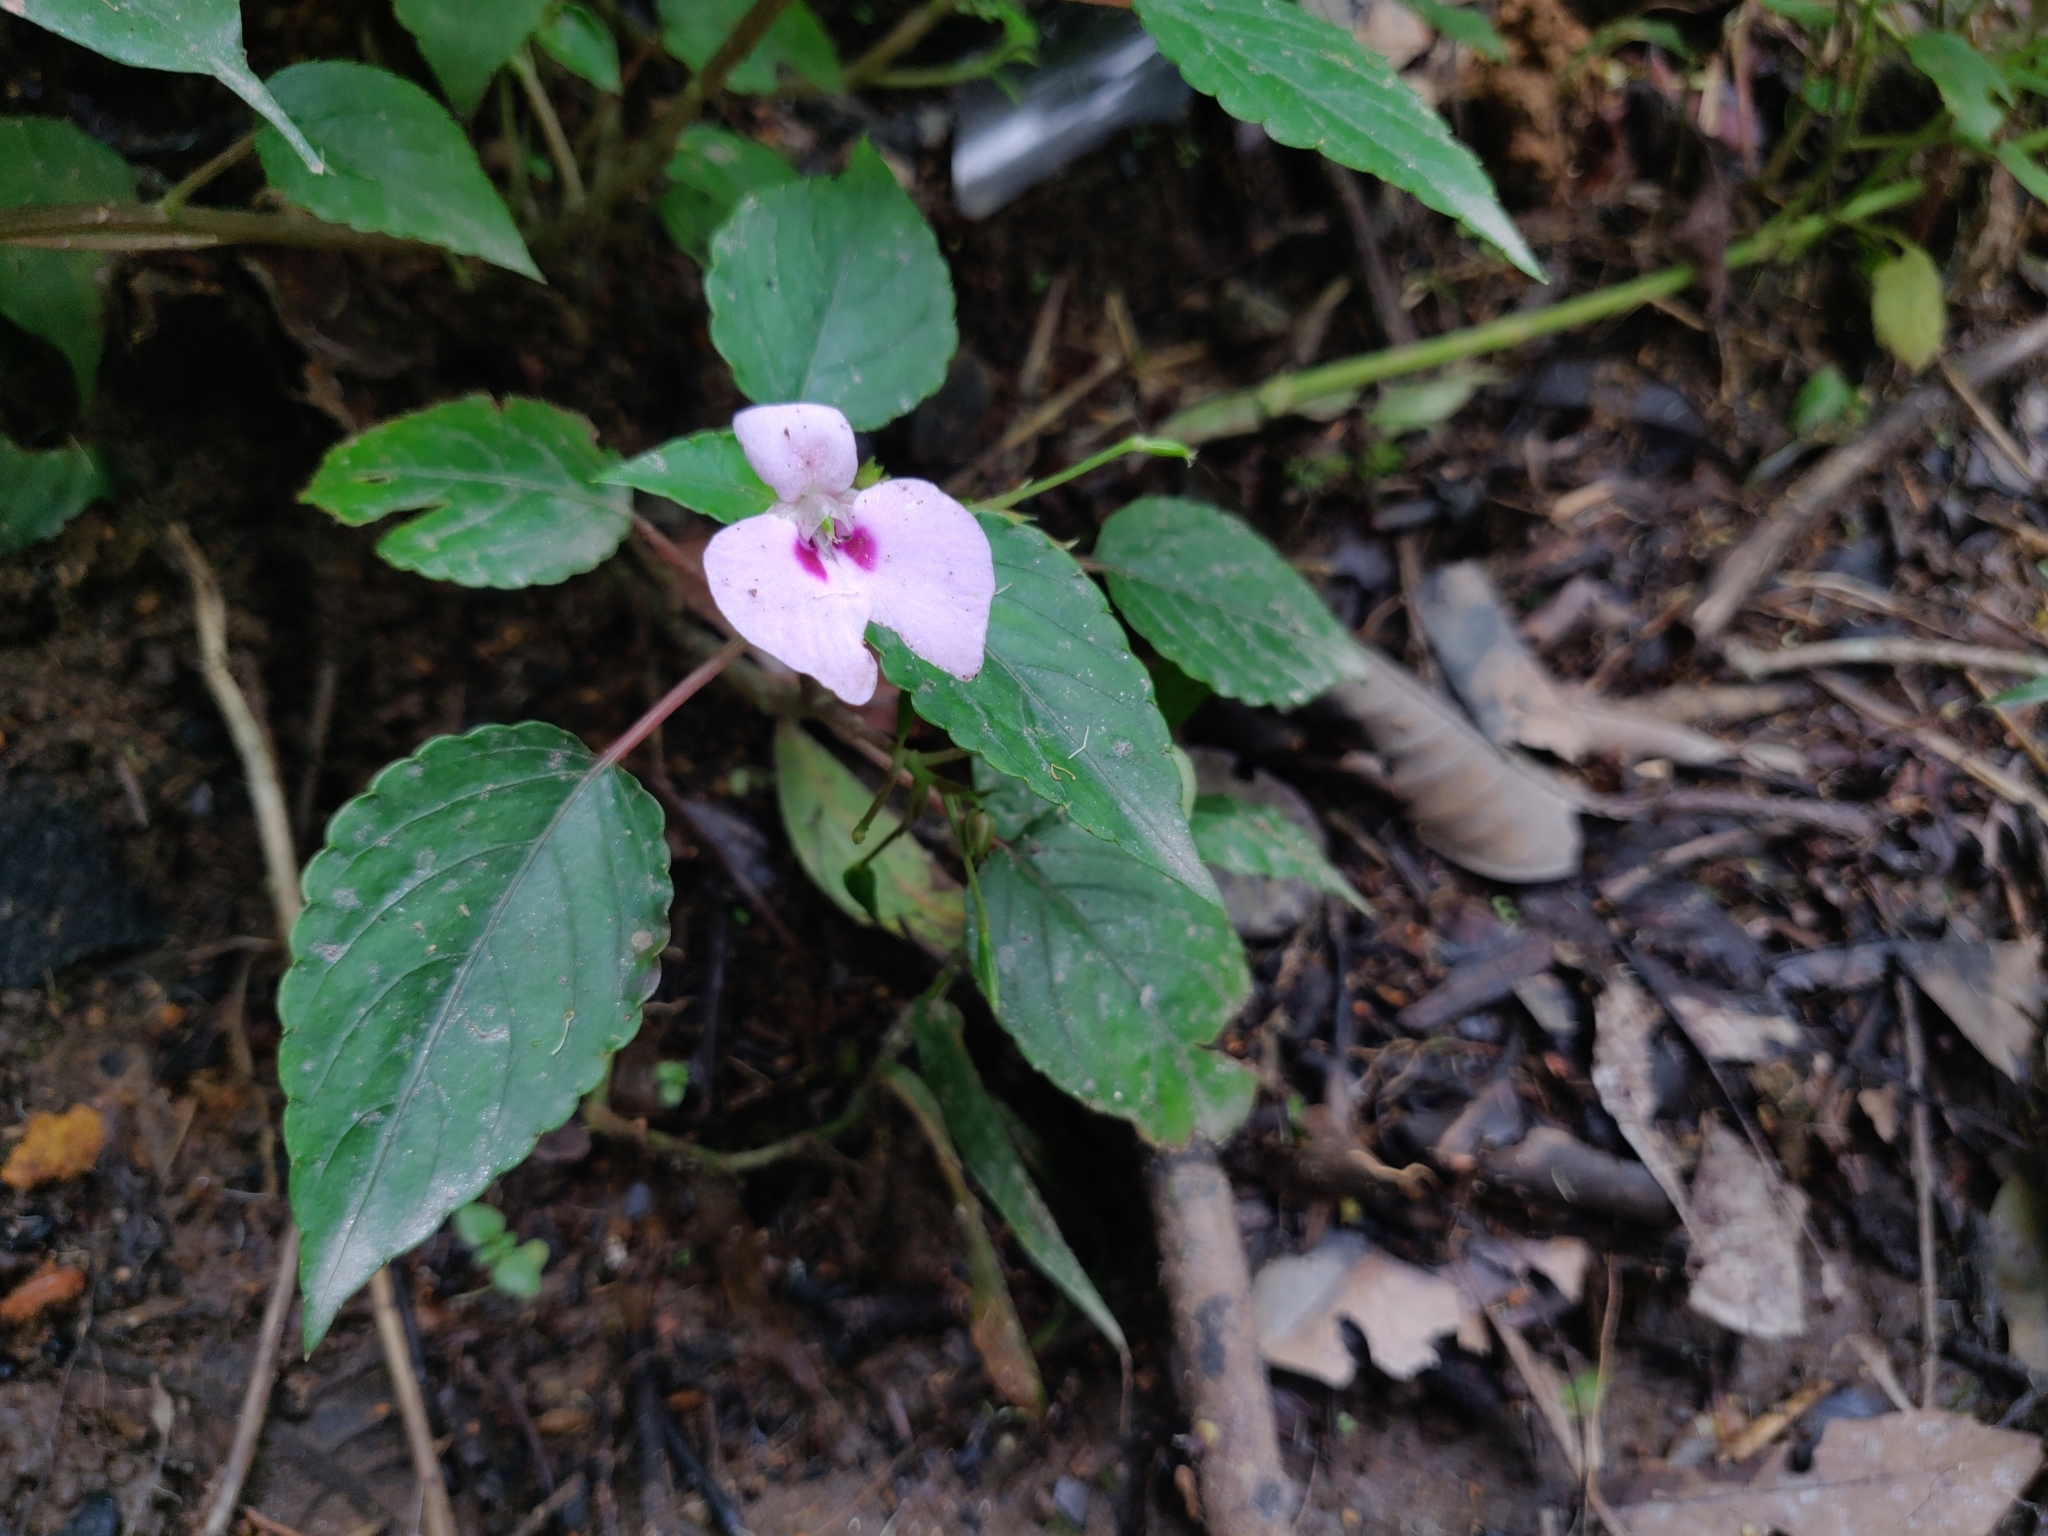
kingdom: Plantae
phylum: Tracheophyta
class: Magnoliopsida
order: Ericales
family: Balsaminaceae
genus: Impatiens
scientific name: Impatiens elegans
